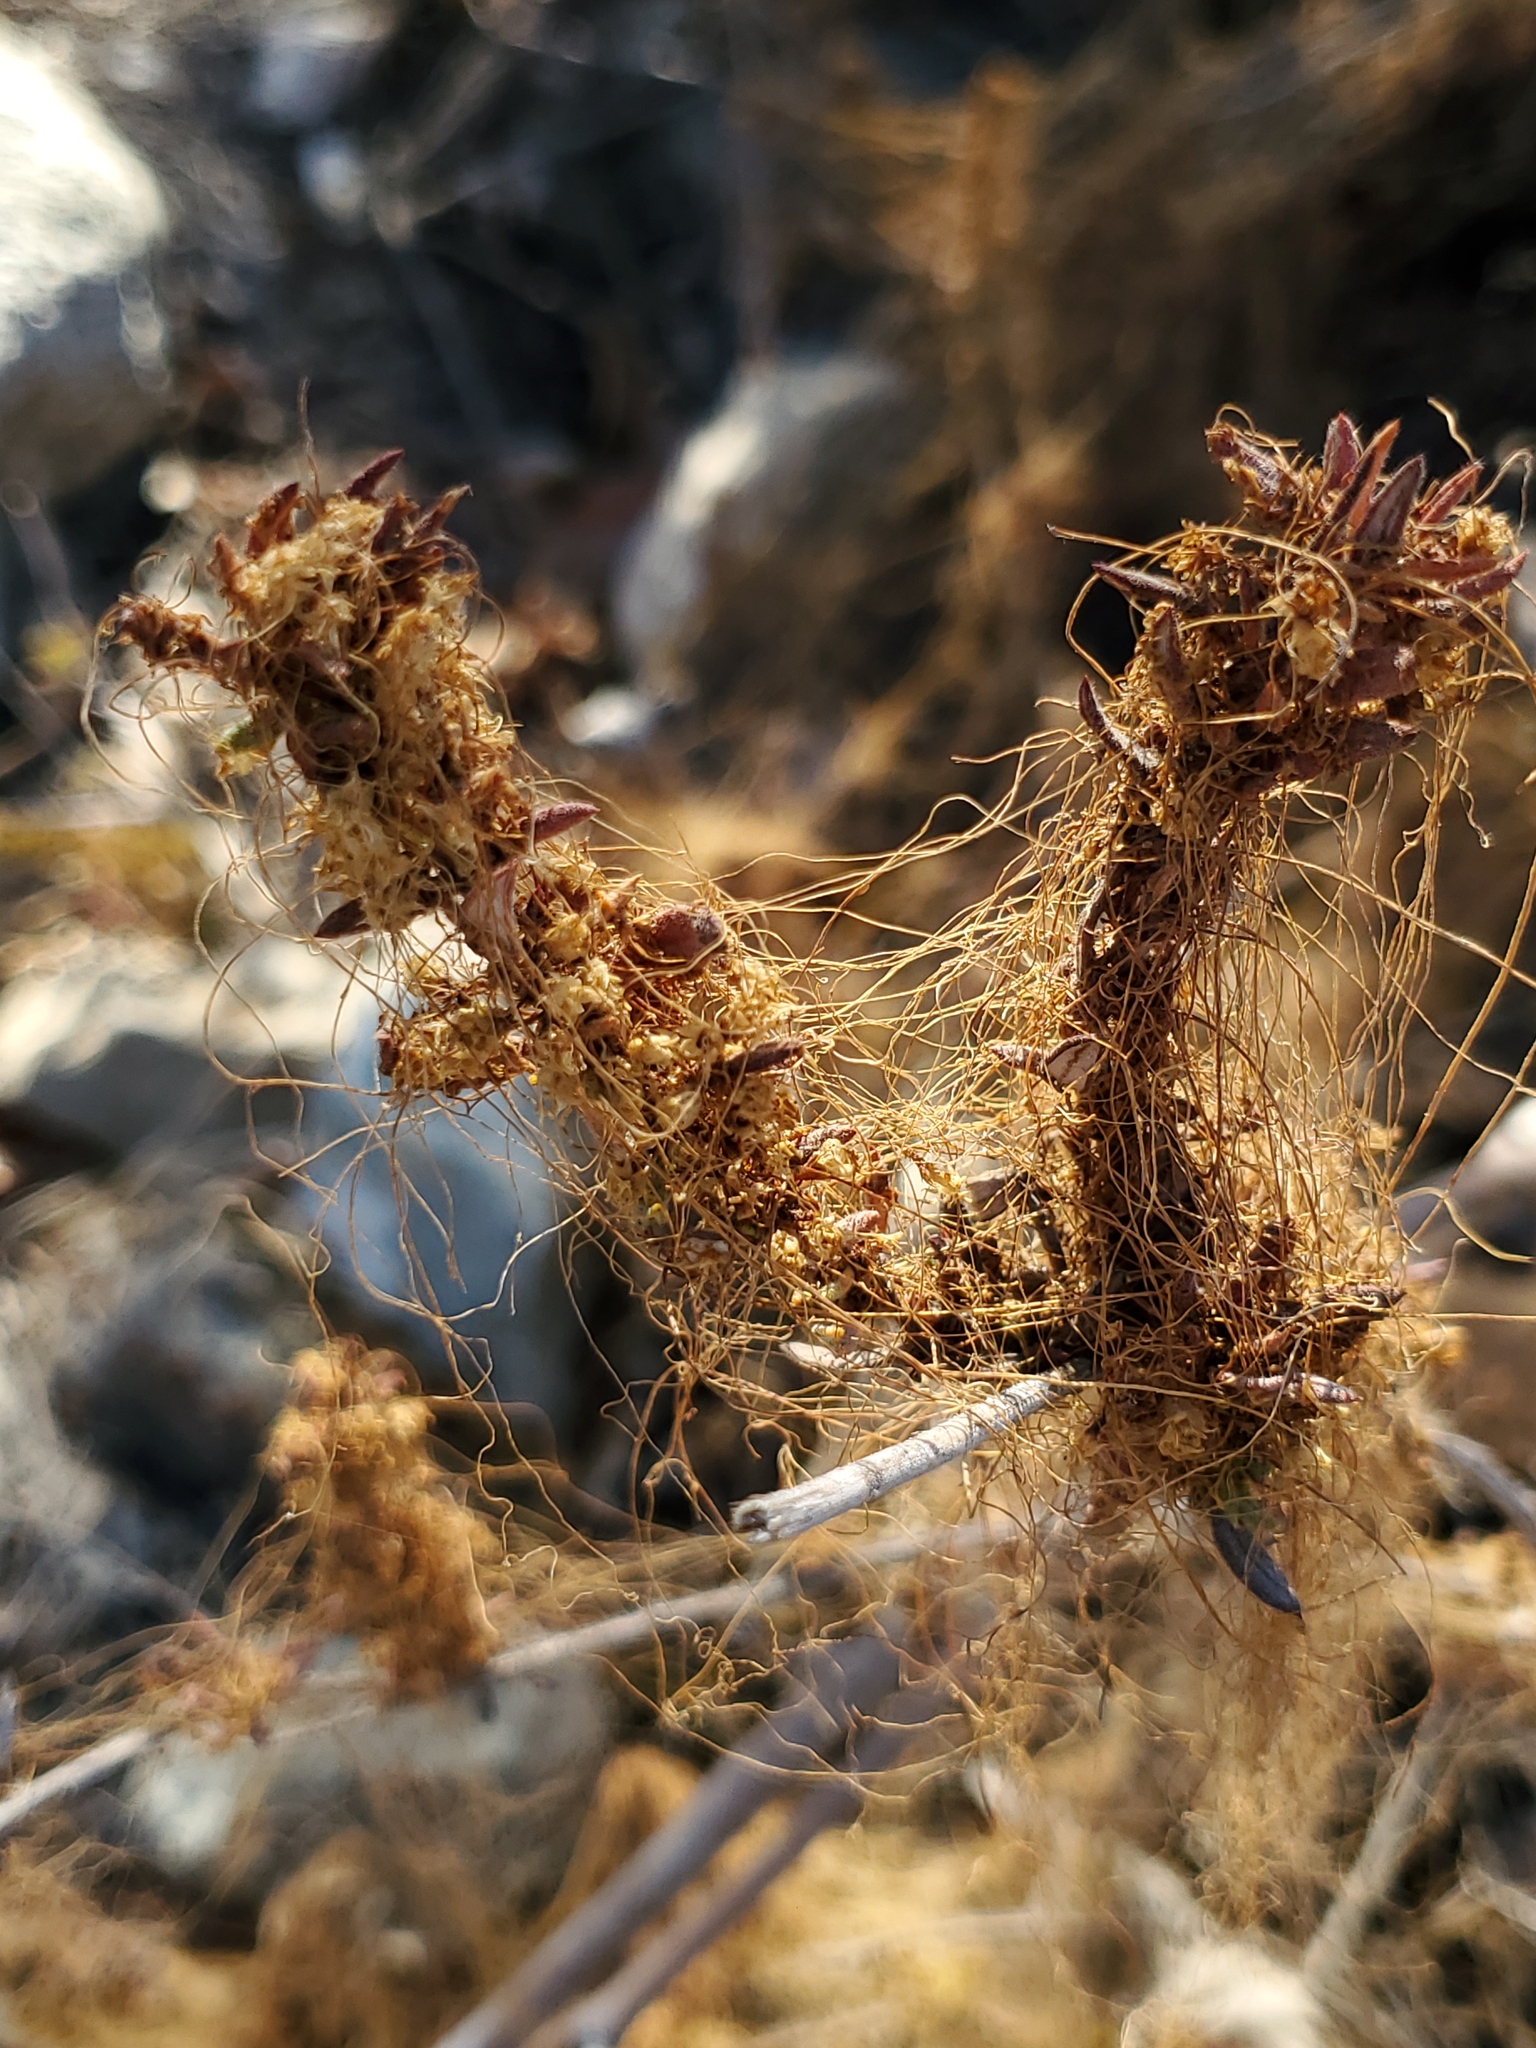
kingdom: Plantae
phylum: Tracheophyta
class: Magnoliopsida
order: Solanales
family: Convolvulaceae
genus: Cuscuta
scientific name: Cuscuta californica
